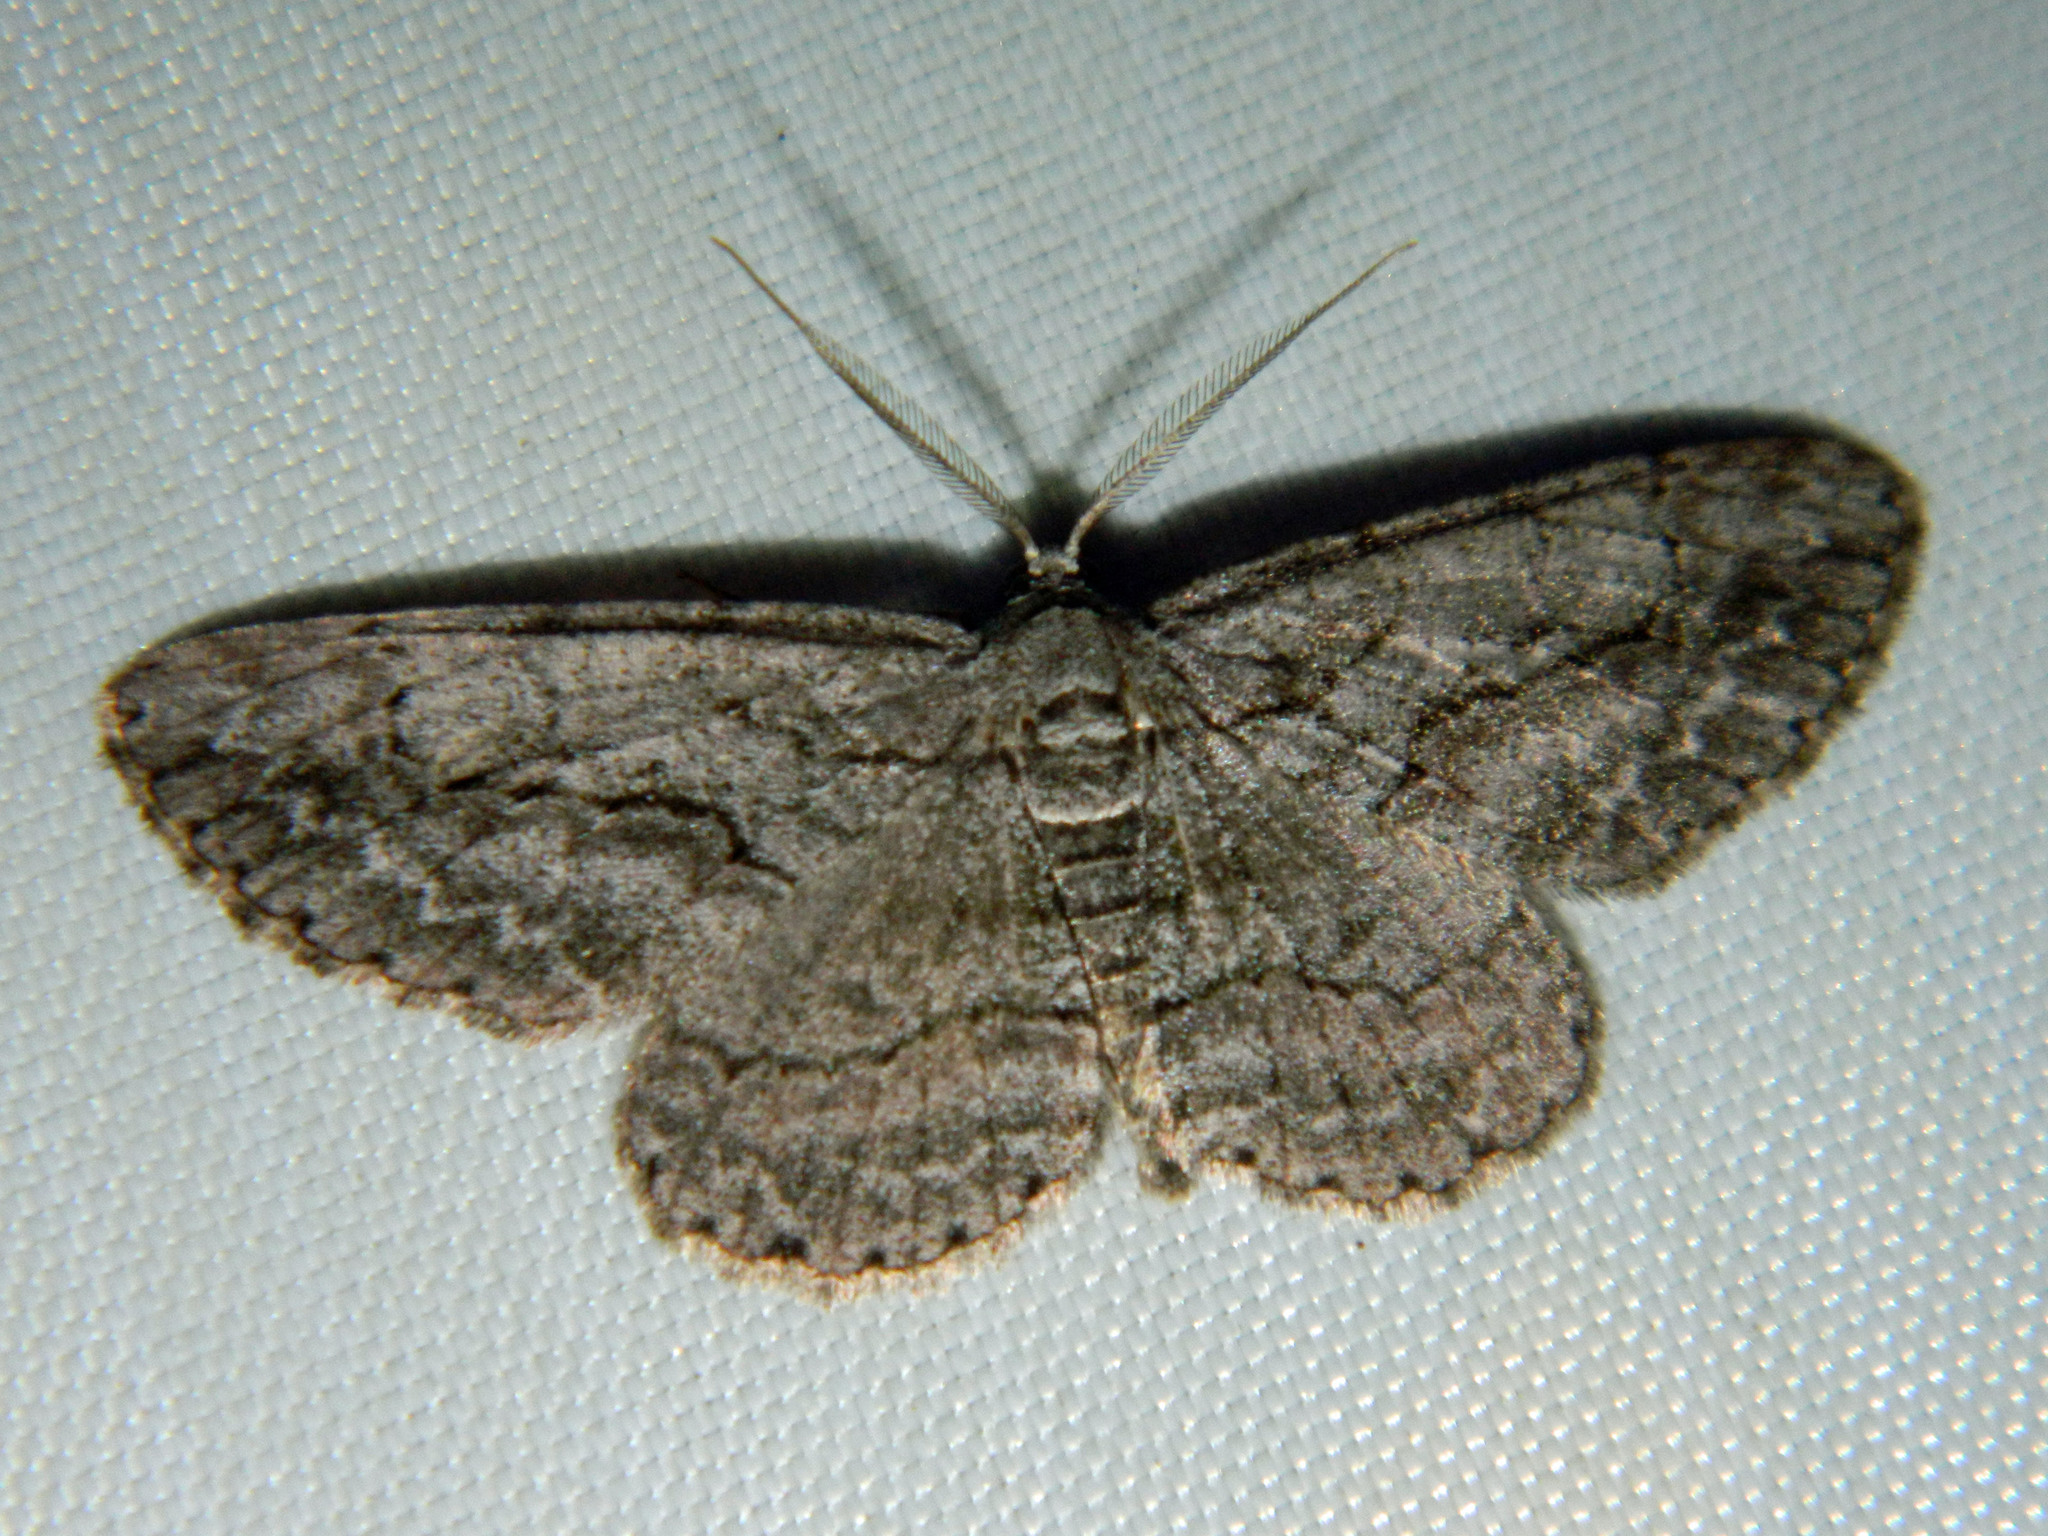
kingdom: Animalia
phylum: Arthropoda
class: Insecta
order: Lepidoptera
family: Geometridae
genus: Anavitrinella
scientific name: Anavitrinella pampinaria
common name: Common gray
